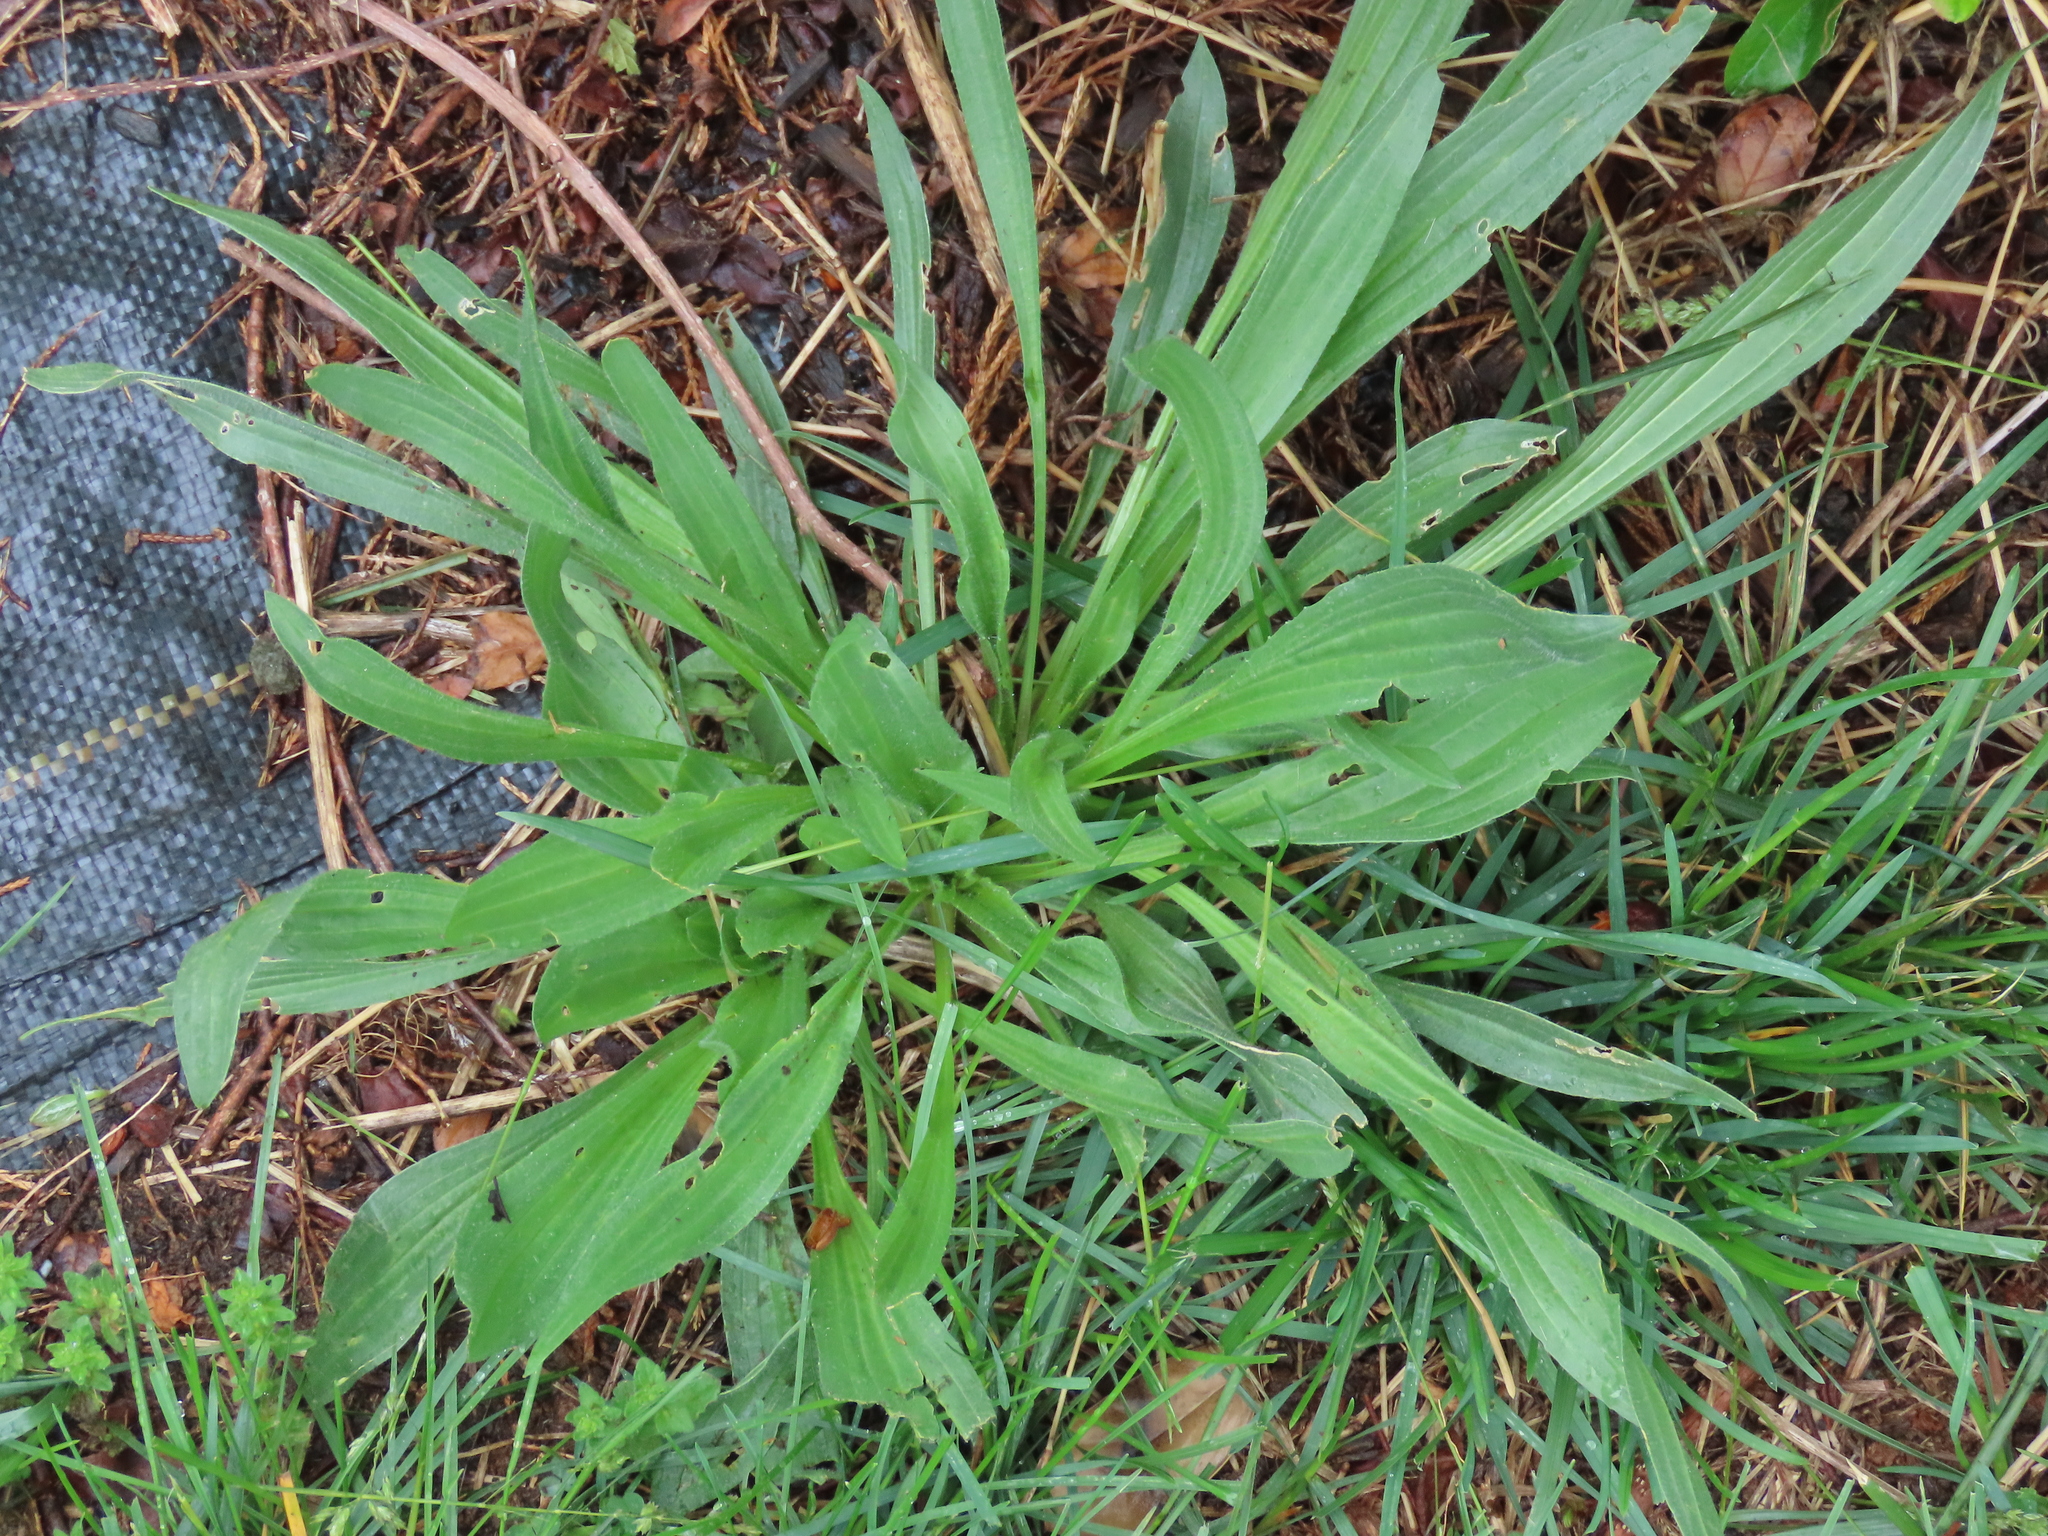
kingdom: Plantae
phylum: Tracheophyta
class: Magnoliopsida
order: Lamiales
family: Plantaginaceae
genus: Plantago
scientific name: Plantago lanceolata
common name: Ribwort plantain
